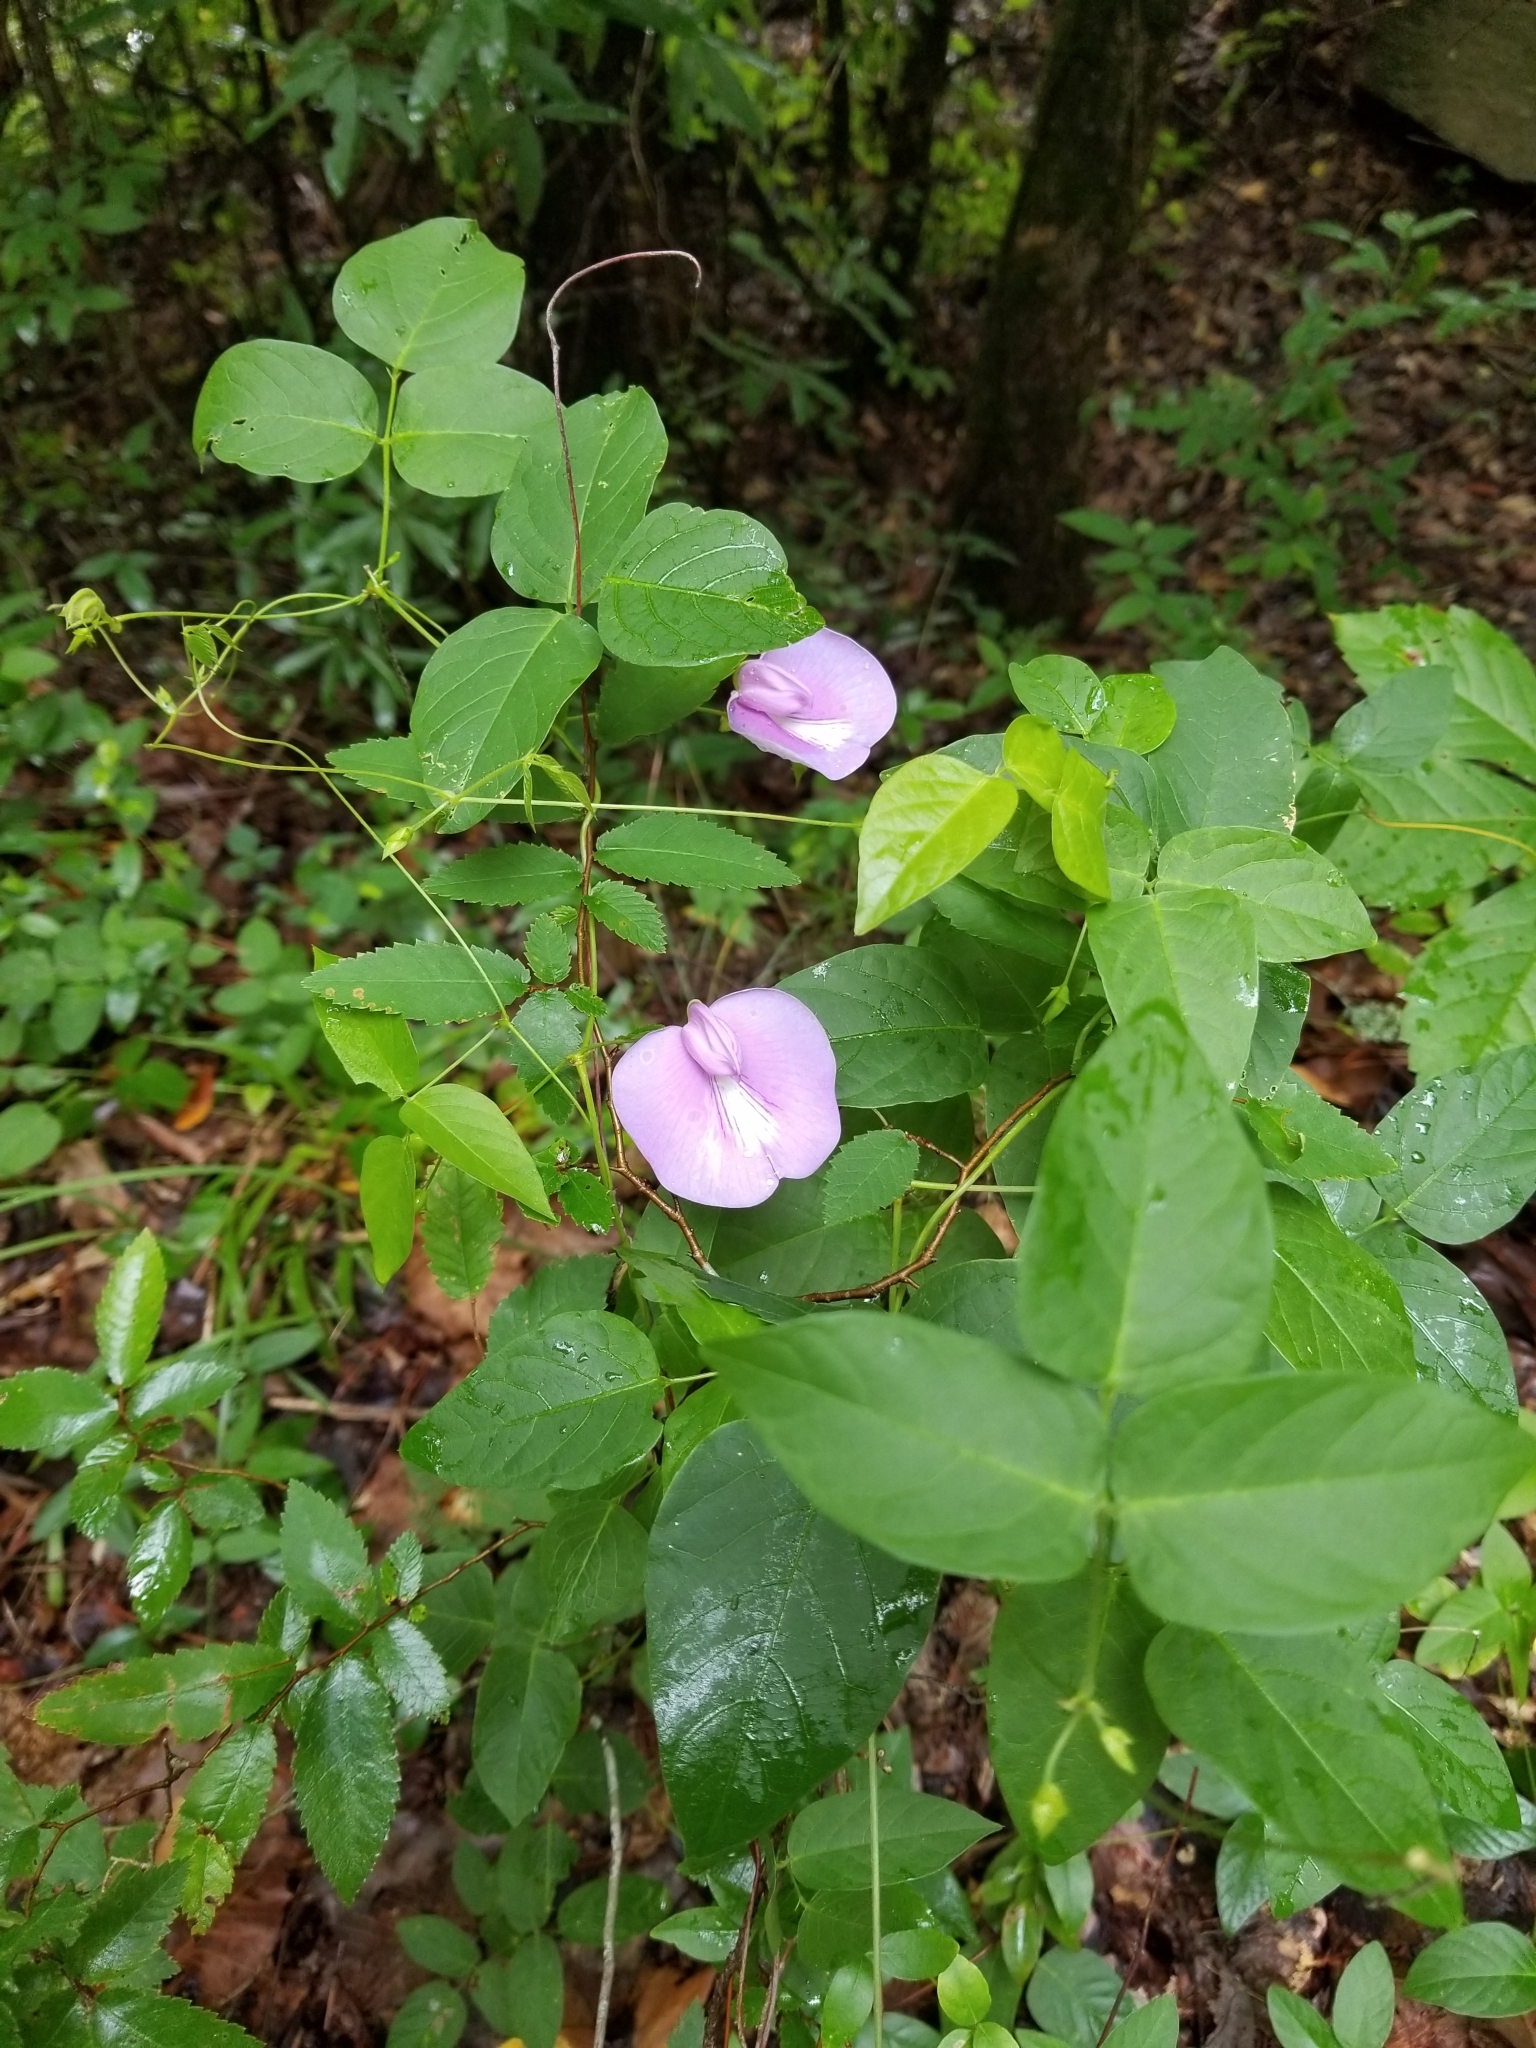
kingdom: Plantae
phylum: Tracheophyta
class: Magnoliopsida
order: Fabales
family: Fabaceae
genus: Centrosema
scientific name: Centrosema virginianum
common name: Butterfly-pea
